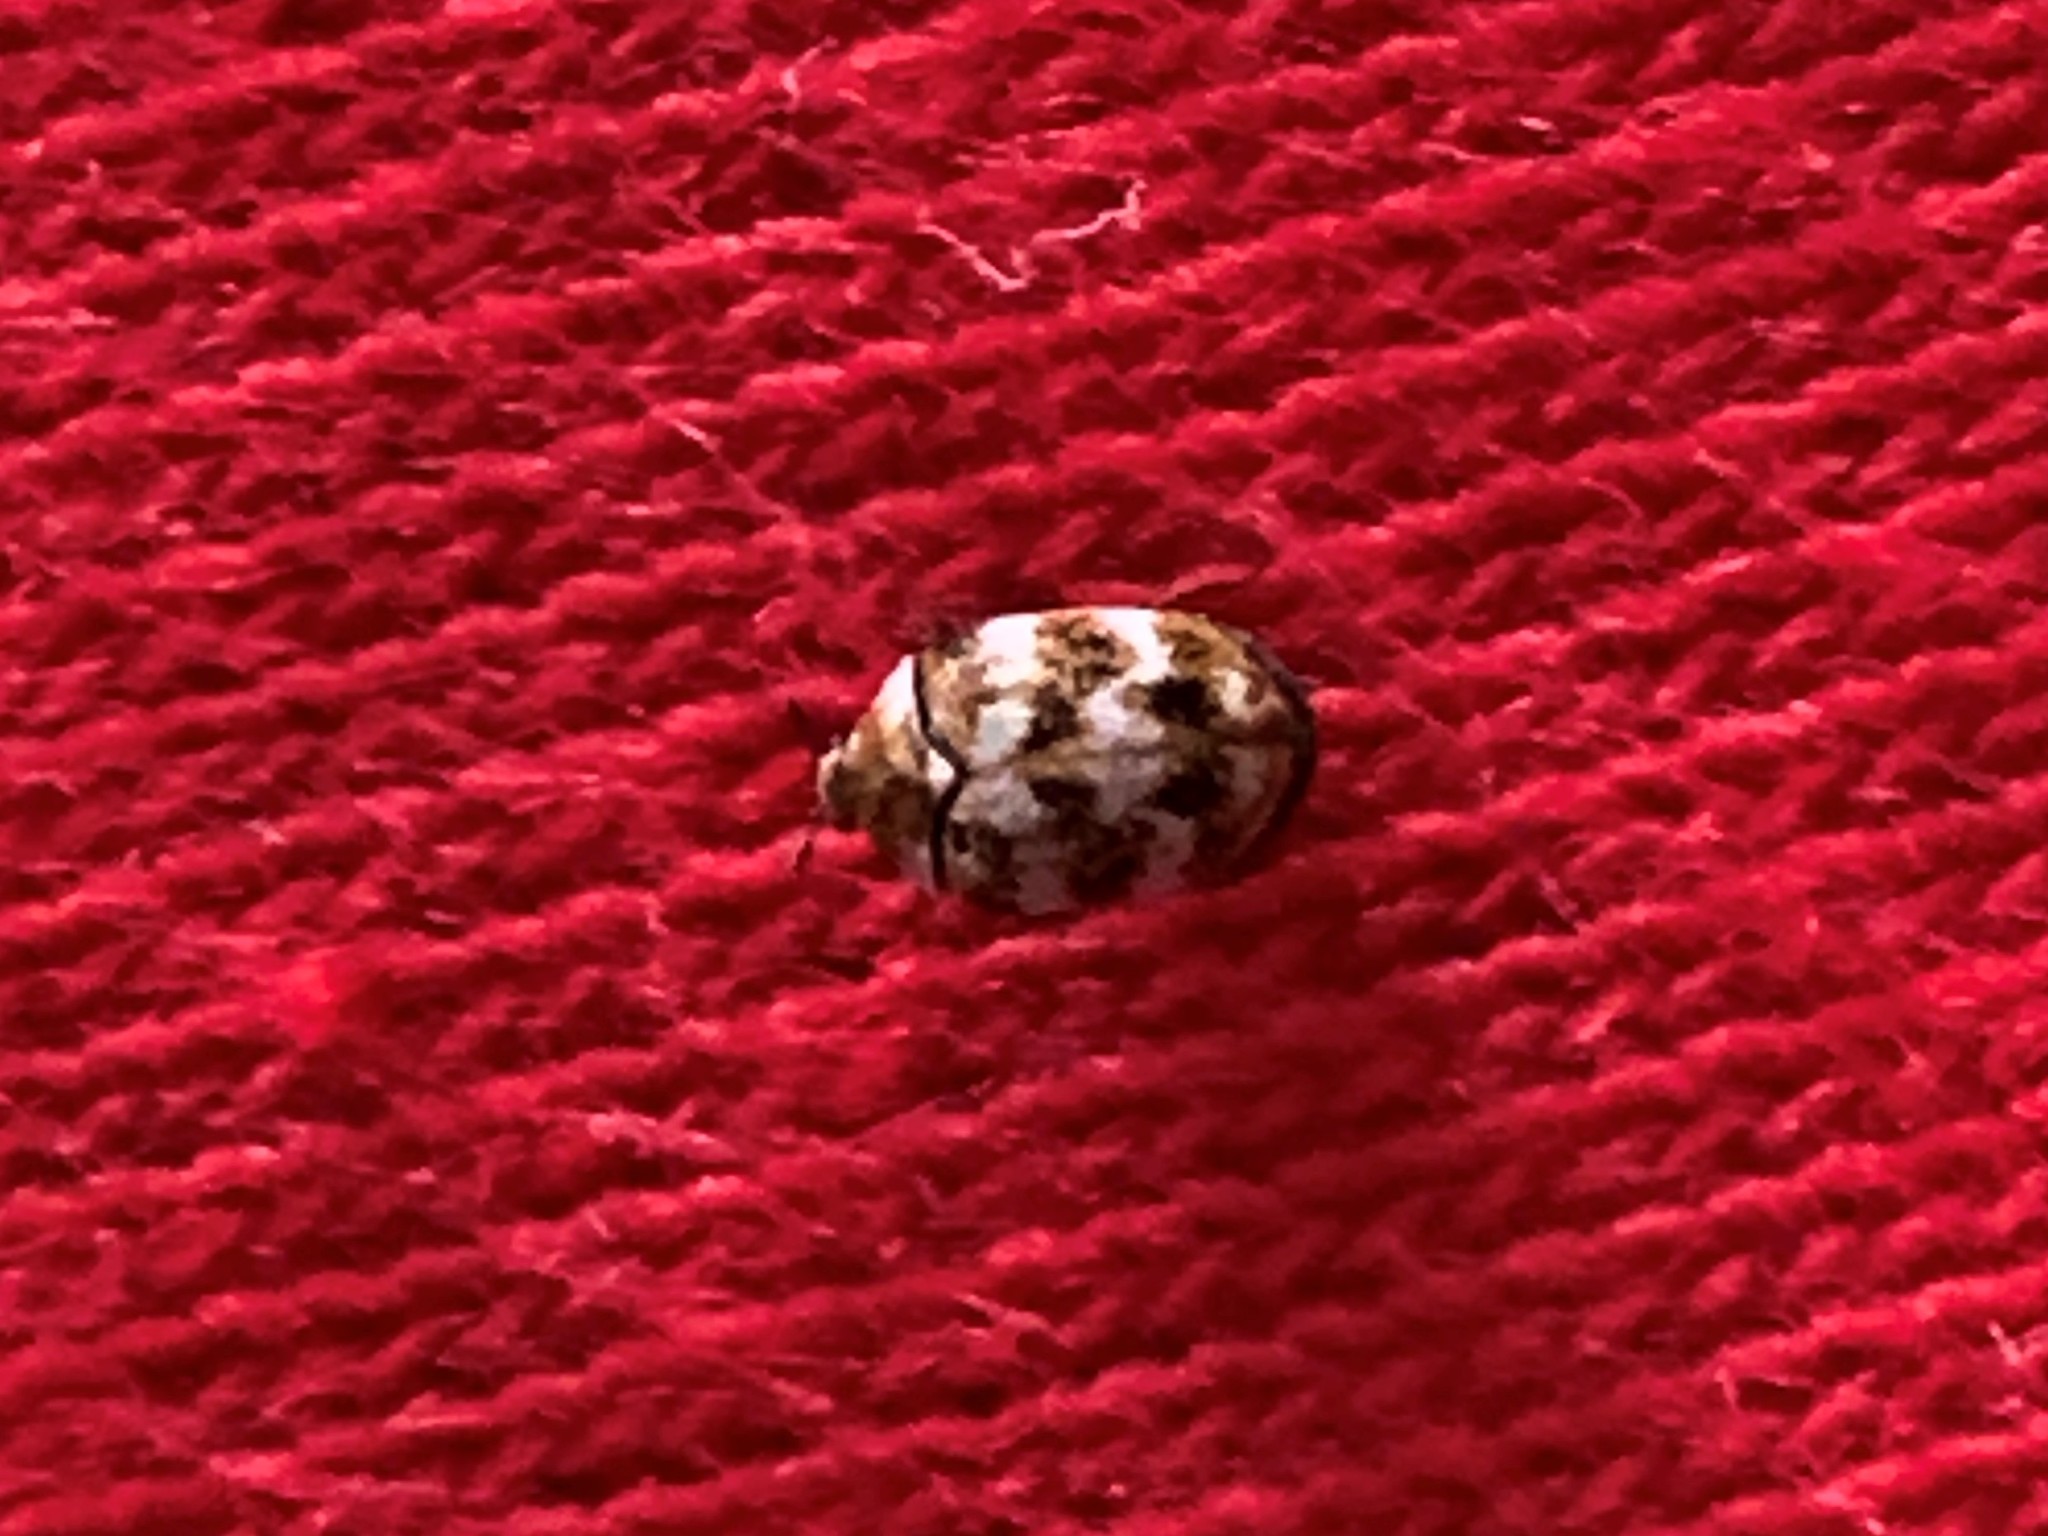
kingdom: Animalia
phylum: Arthropoda
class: Insecta
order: Coleoptera
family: Dermestidae
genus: Anthrenus
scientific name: Anthrenus verbasci
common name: Varied carpet beetle
